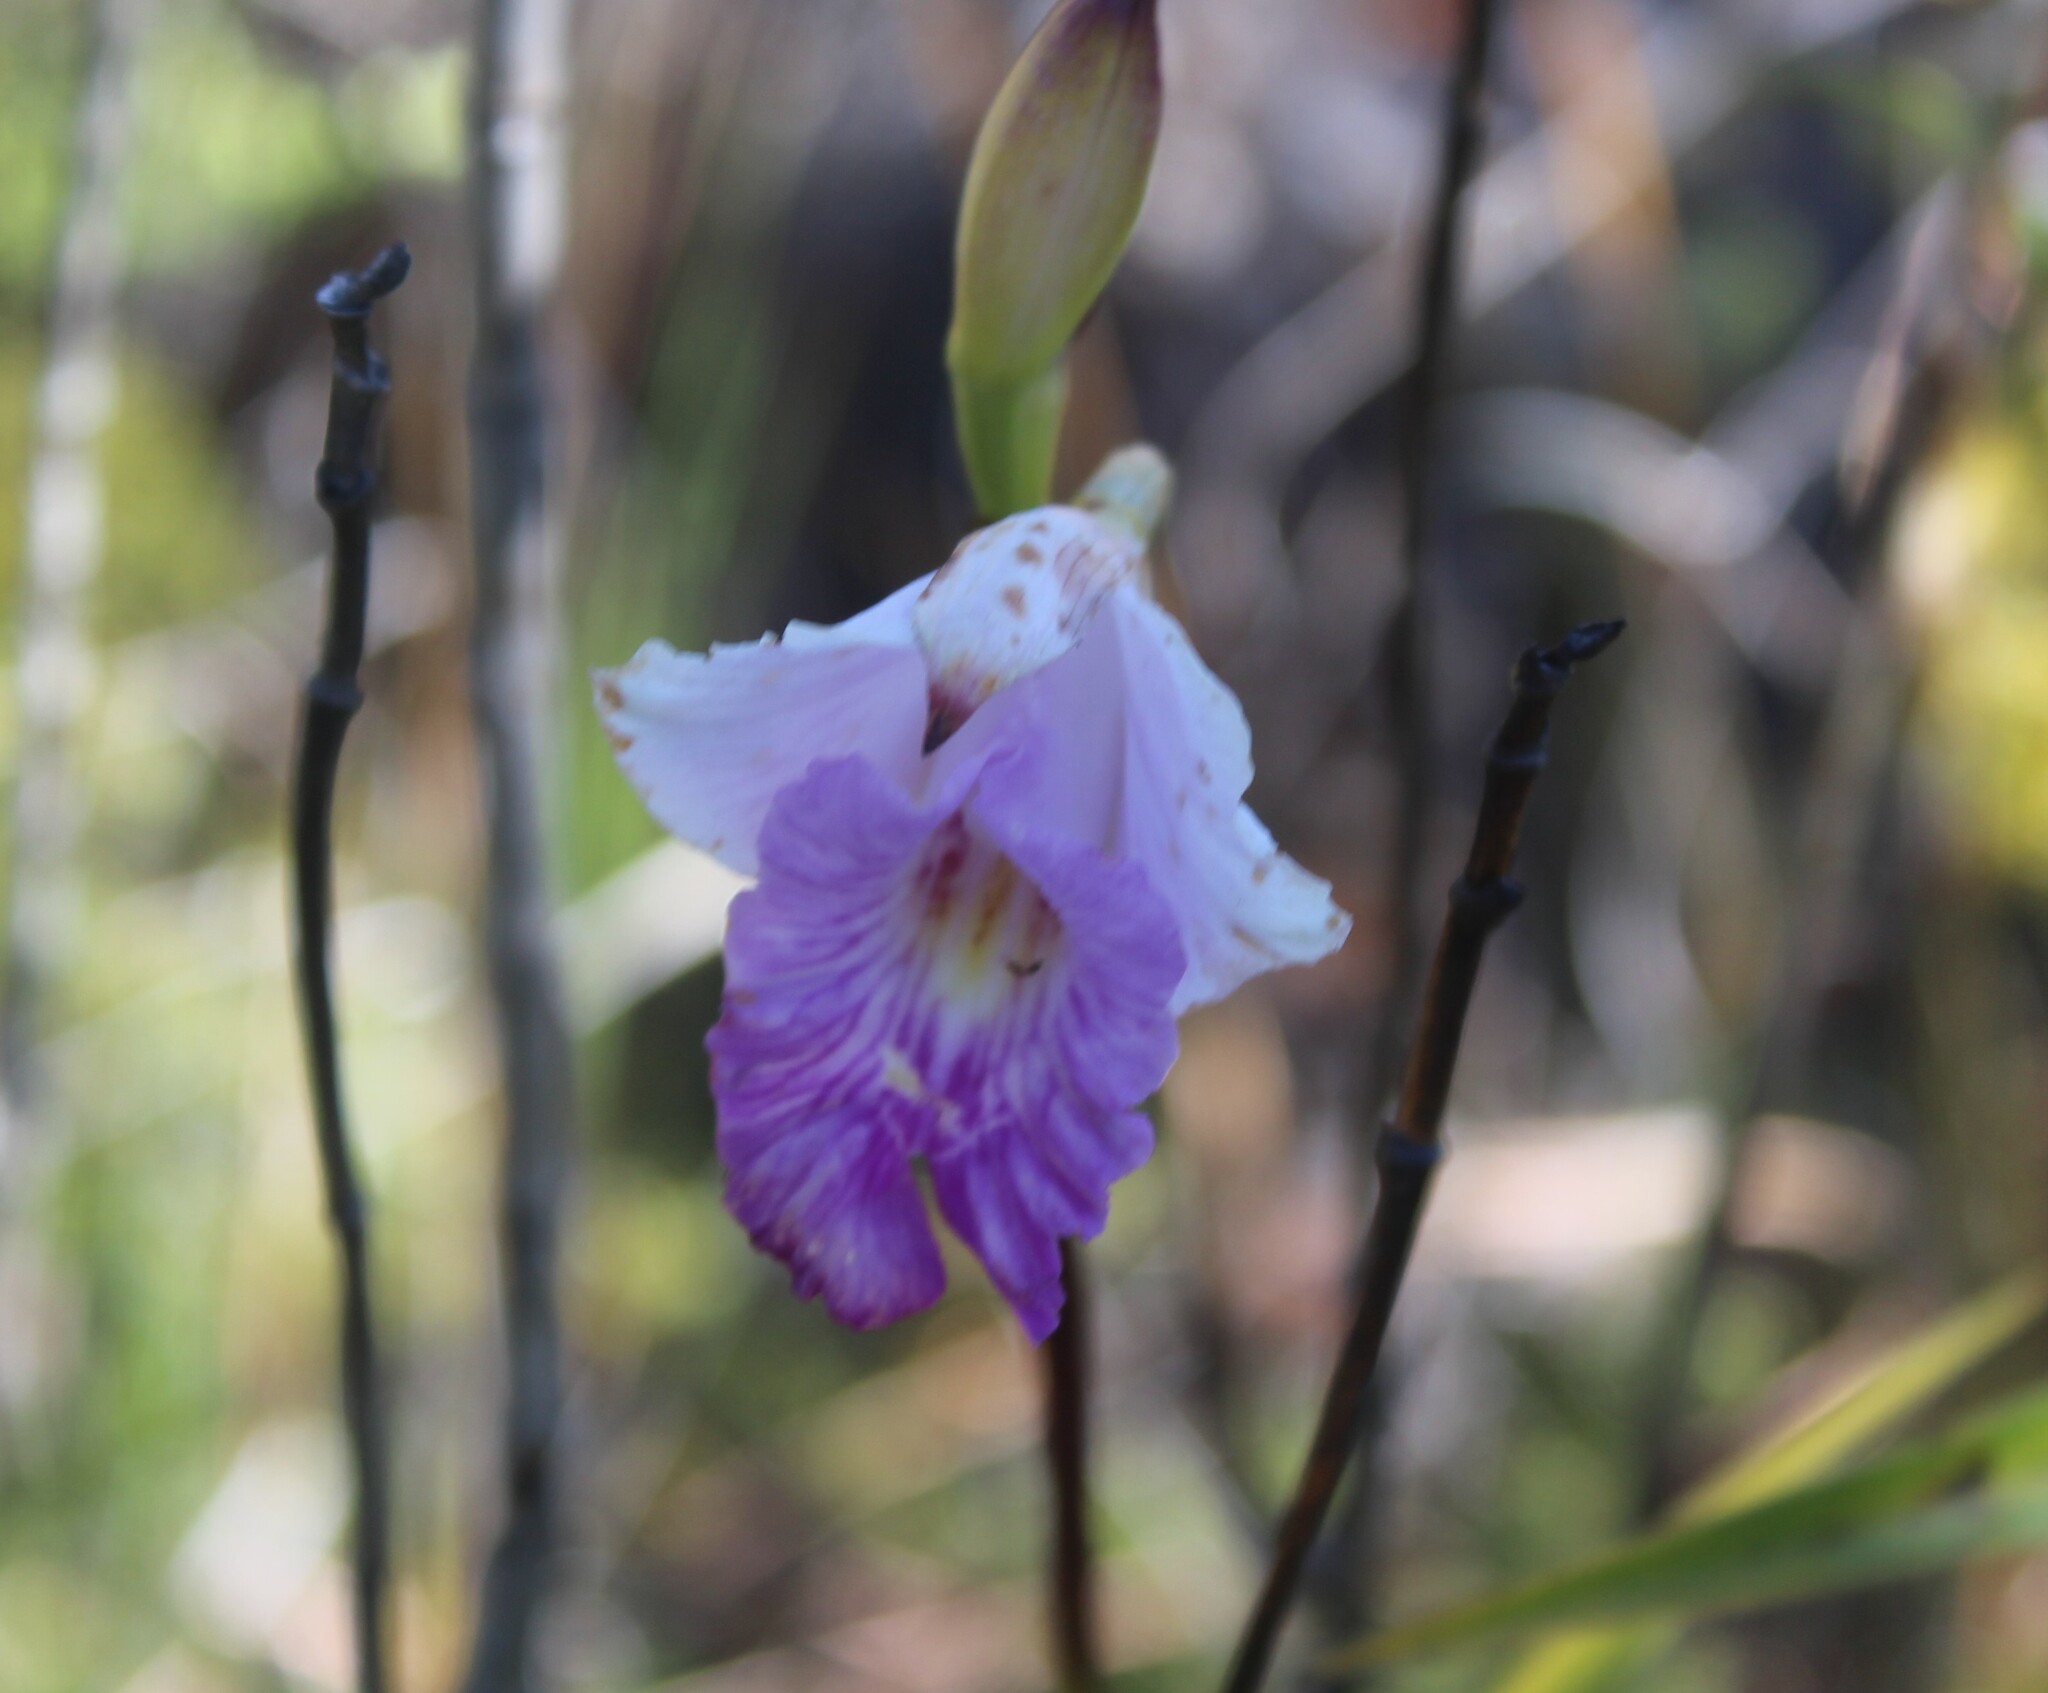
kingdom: Plantae
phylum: Tracheophyta
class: Liliopsida
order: Asparagales
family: Orchidaceae
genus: Arundina
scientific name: Arundina graminifolia
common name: Bamboo orchid
